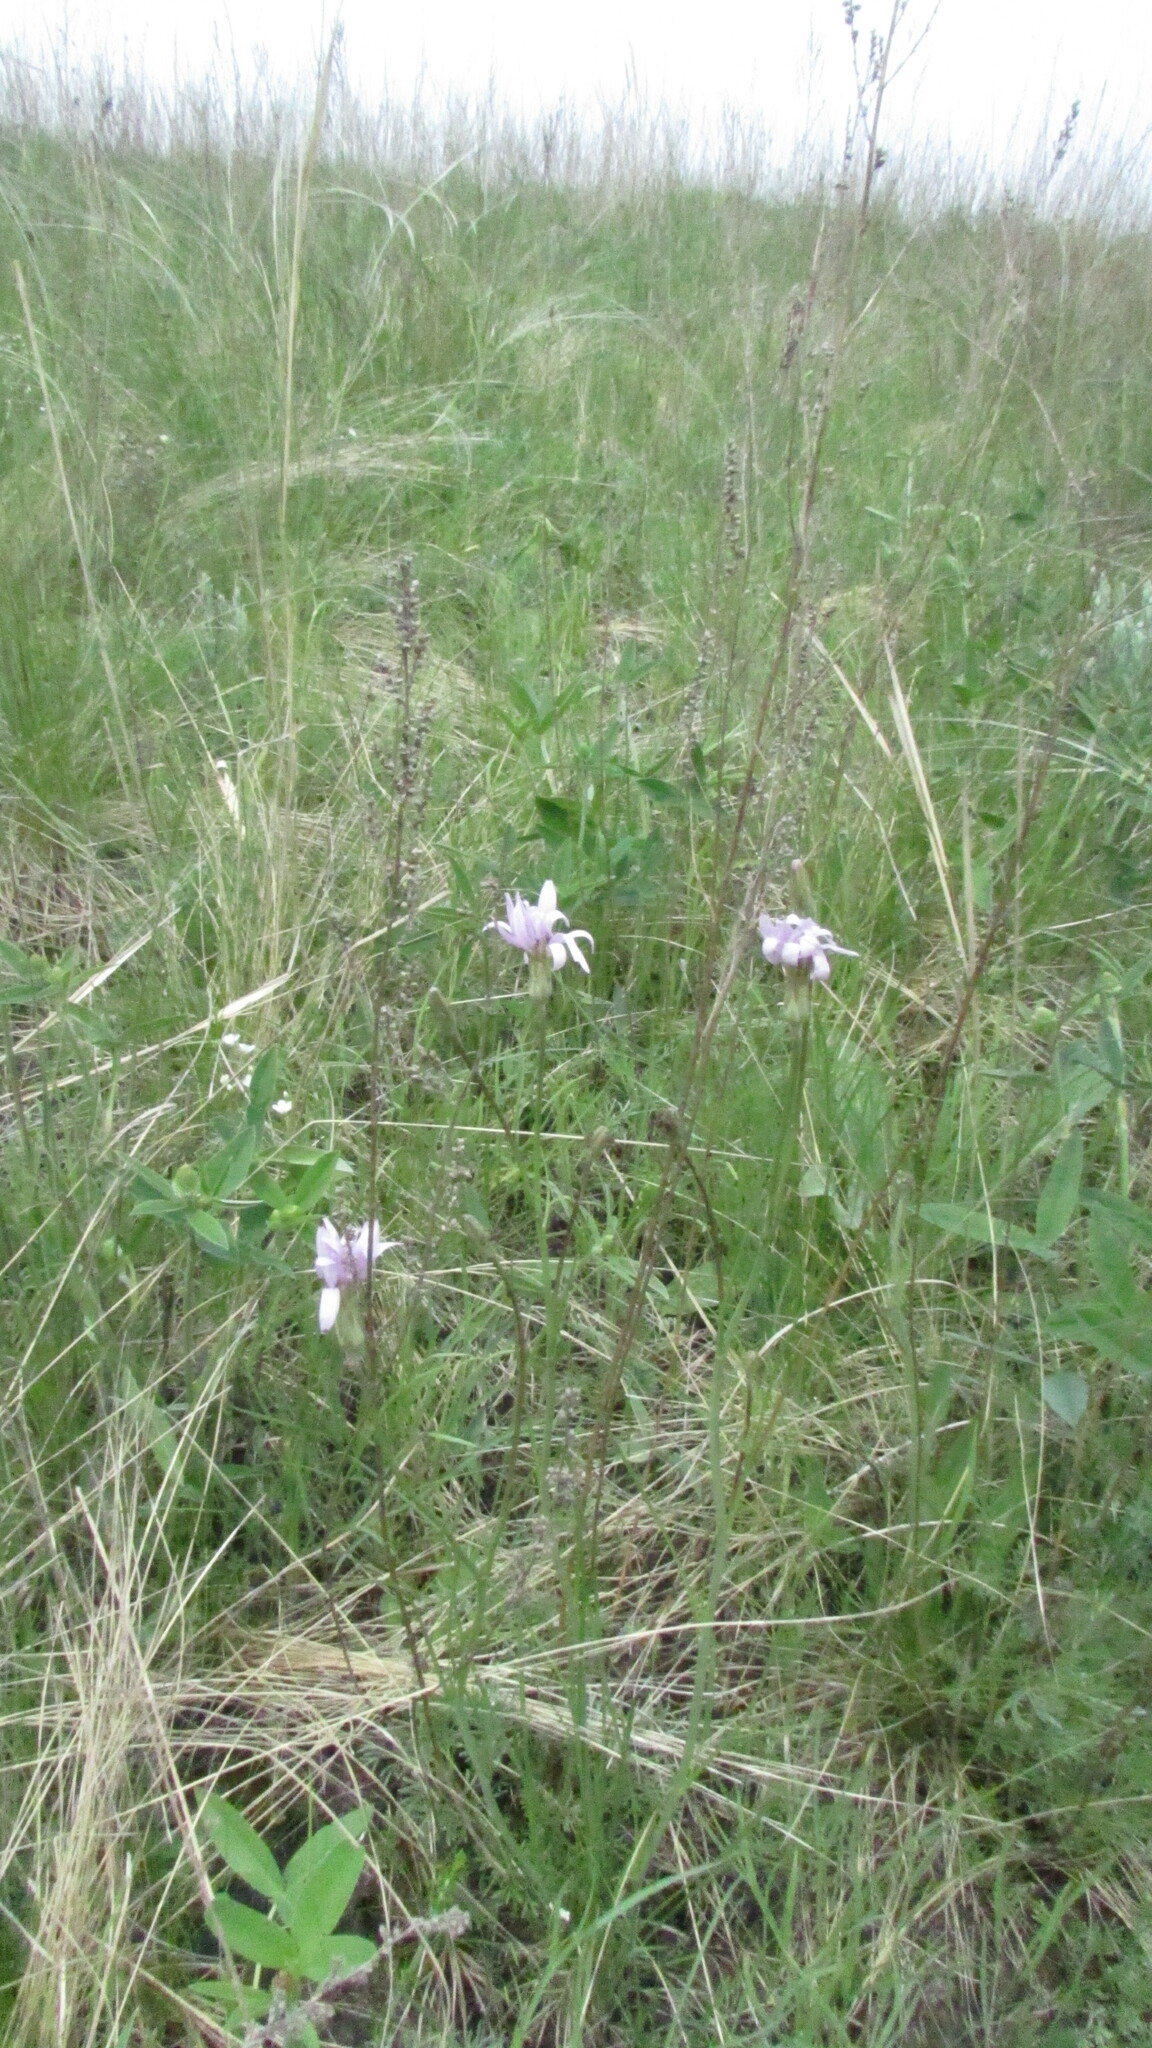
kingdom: Plantae
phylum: Tracheophyta
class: Magnoliopsida
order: Asterales
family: Asteraceae
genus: Scorzonera
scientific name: Scorzonera purpurea
